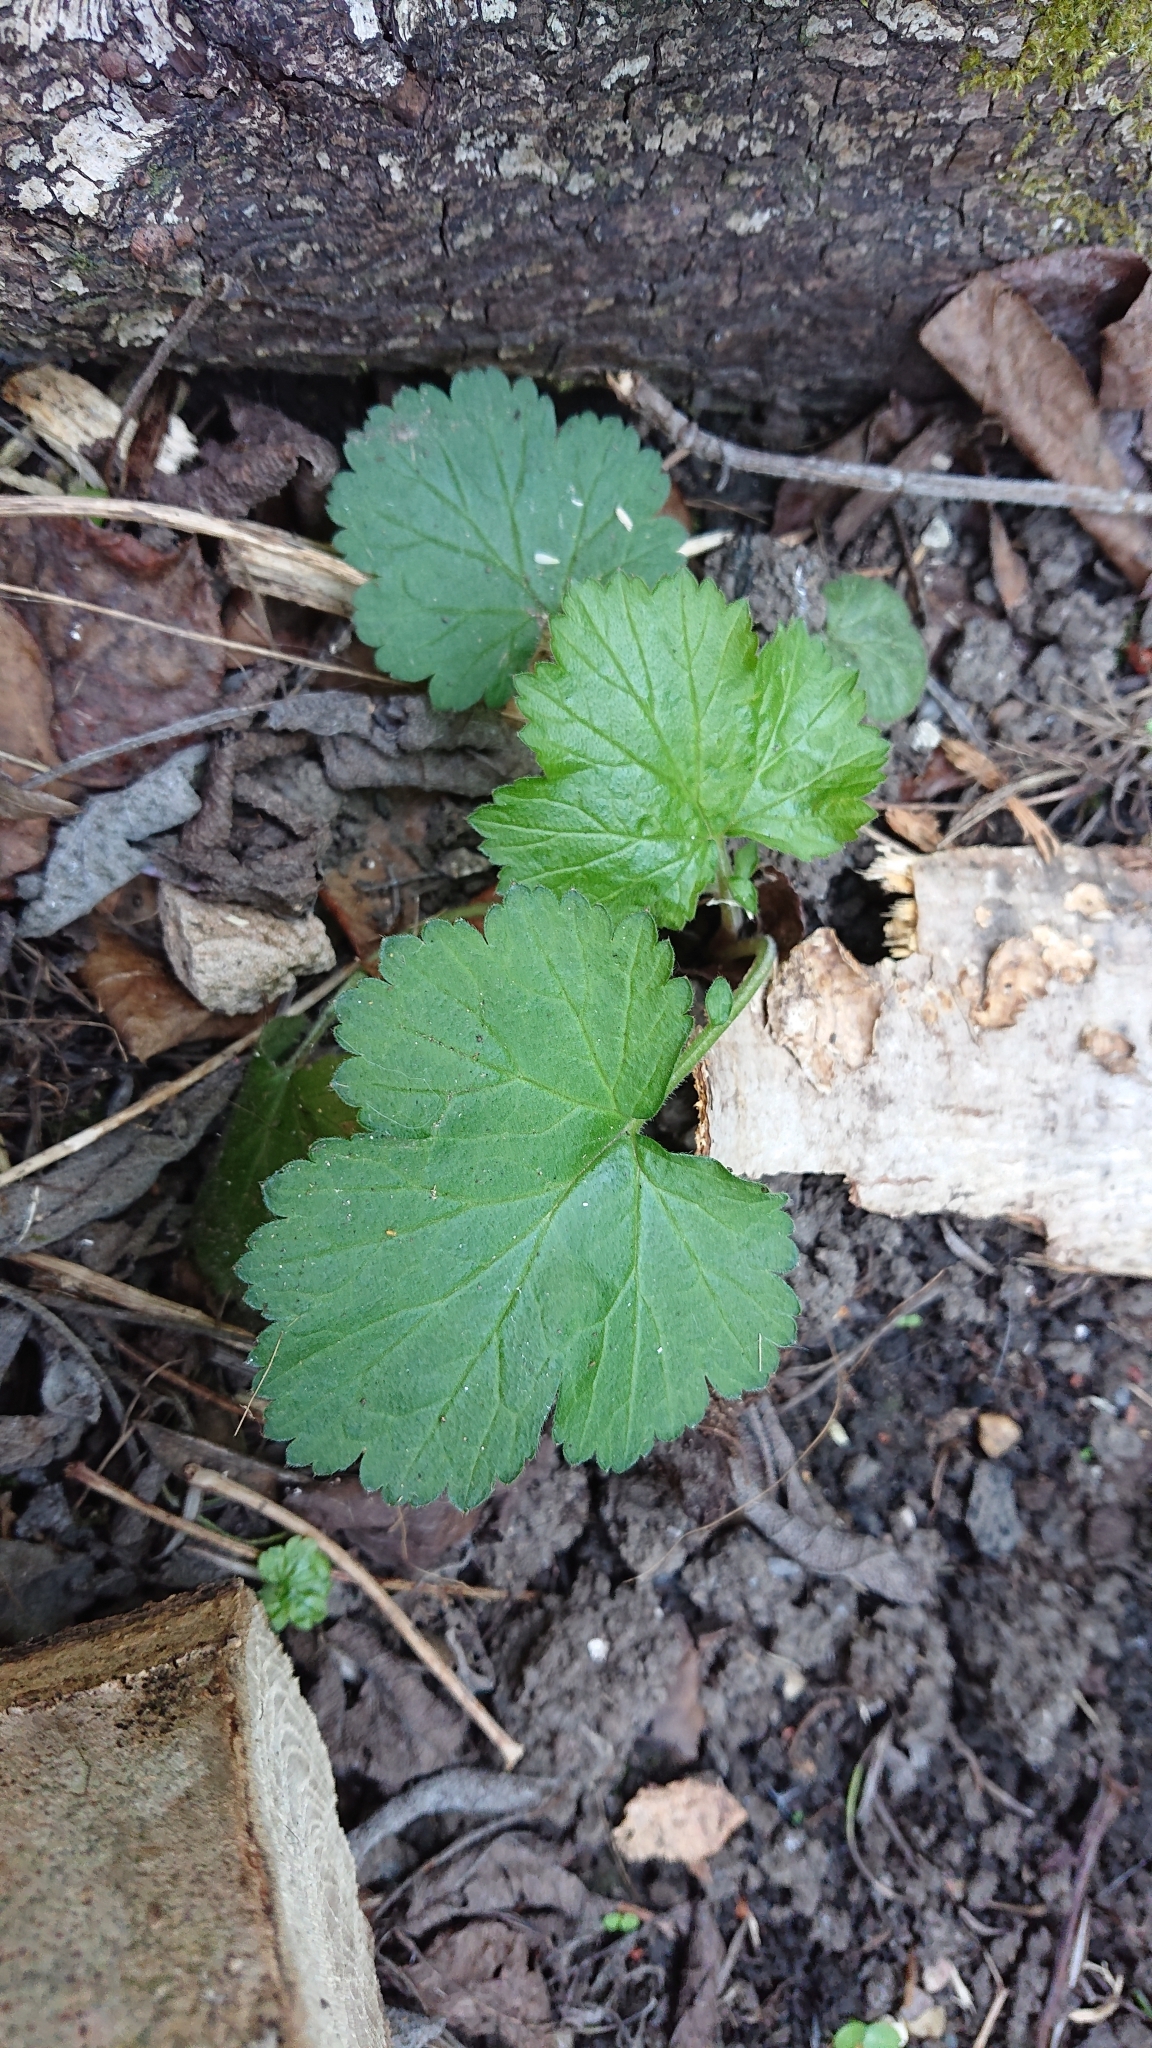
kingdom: Plantae
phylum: Tracheophyta
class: Magnoliopsida
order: Rosales
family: Rosaceae
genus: Geum
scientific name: Geum urbanum
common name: Wood avens
